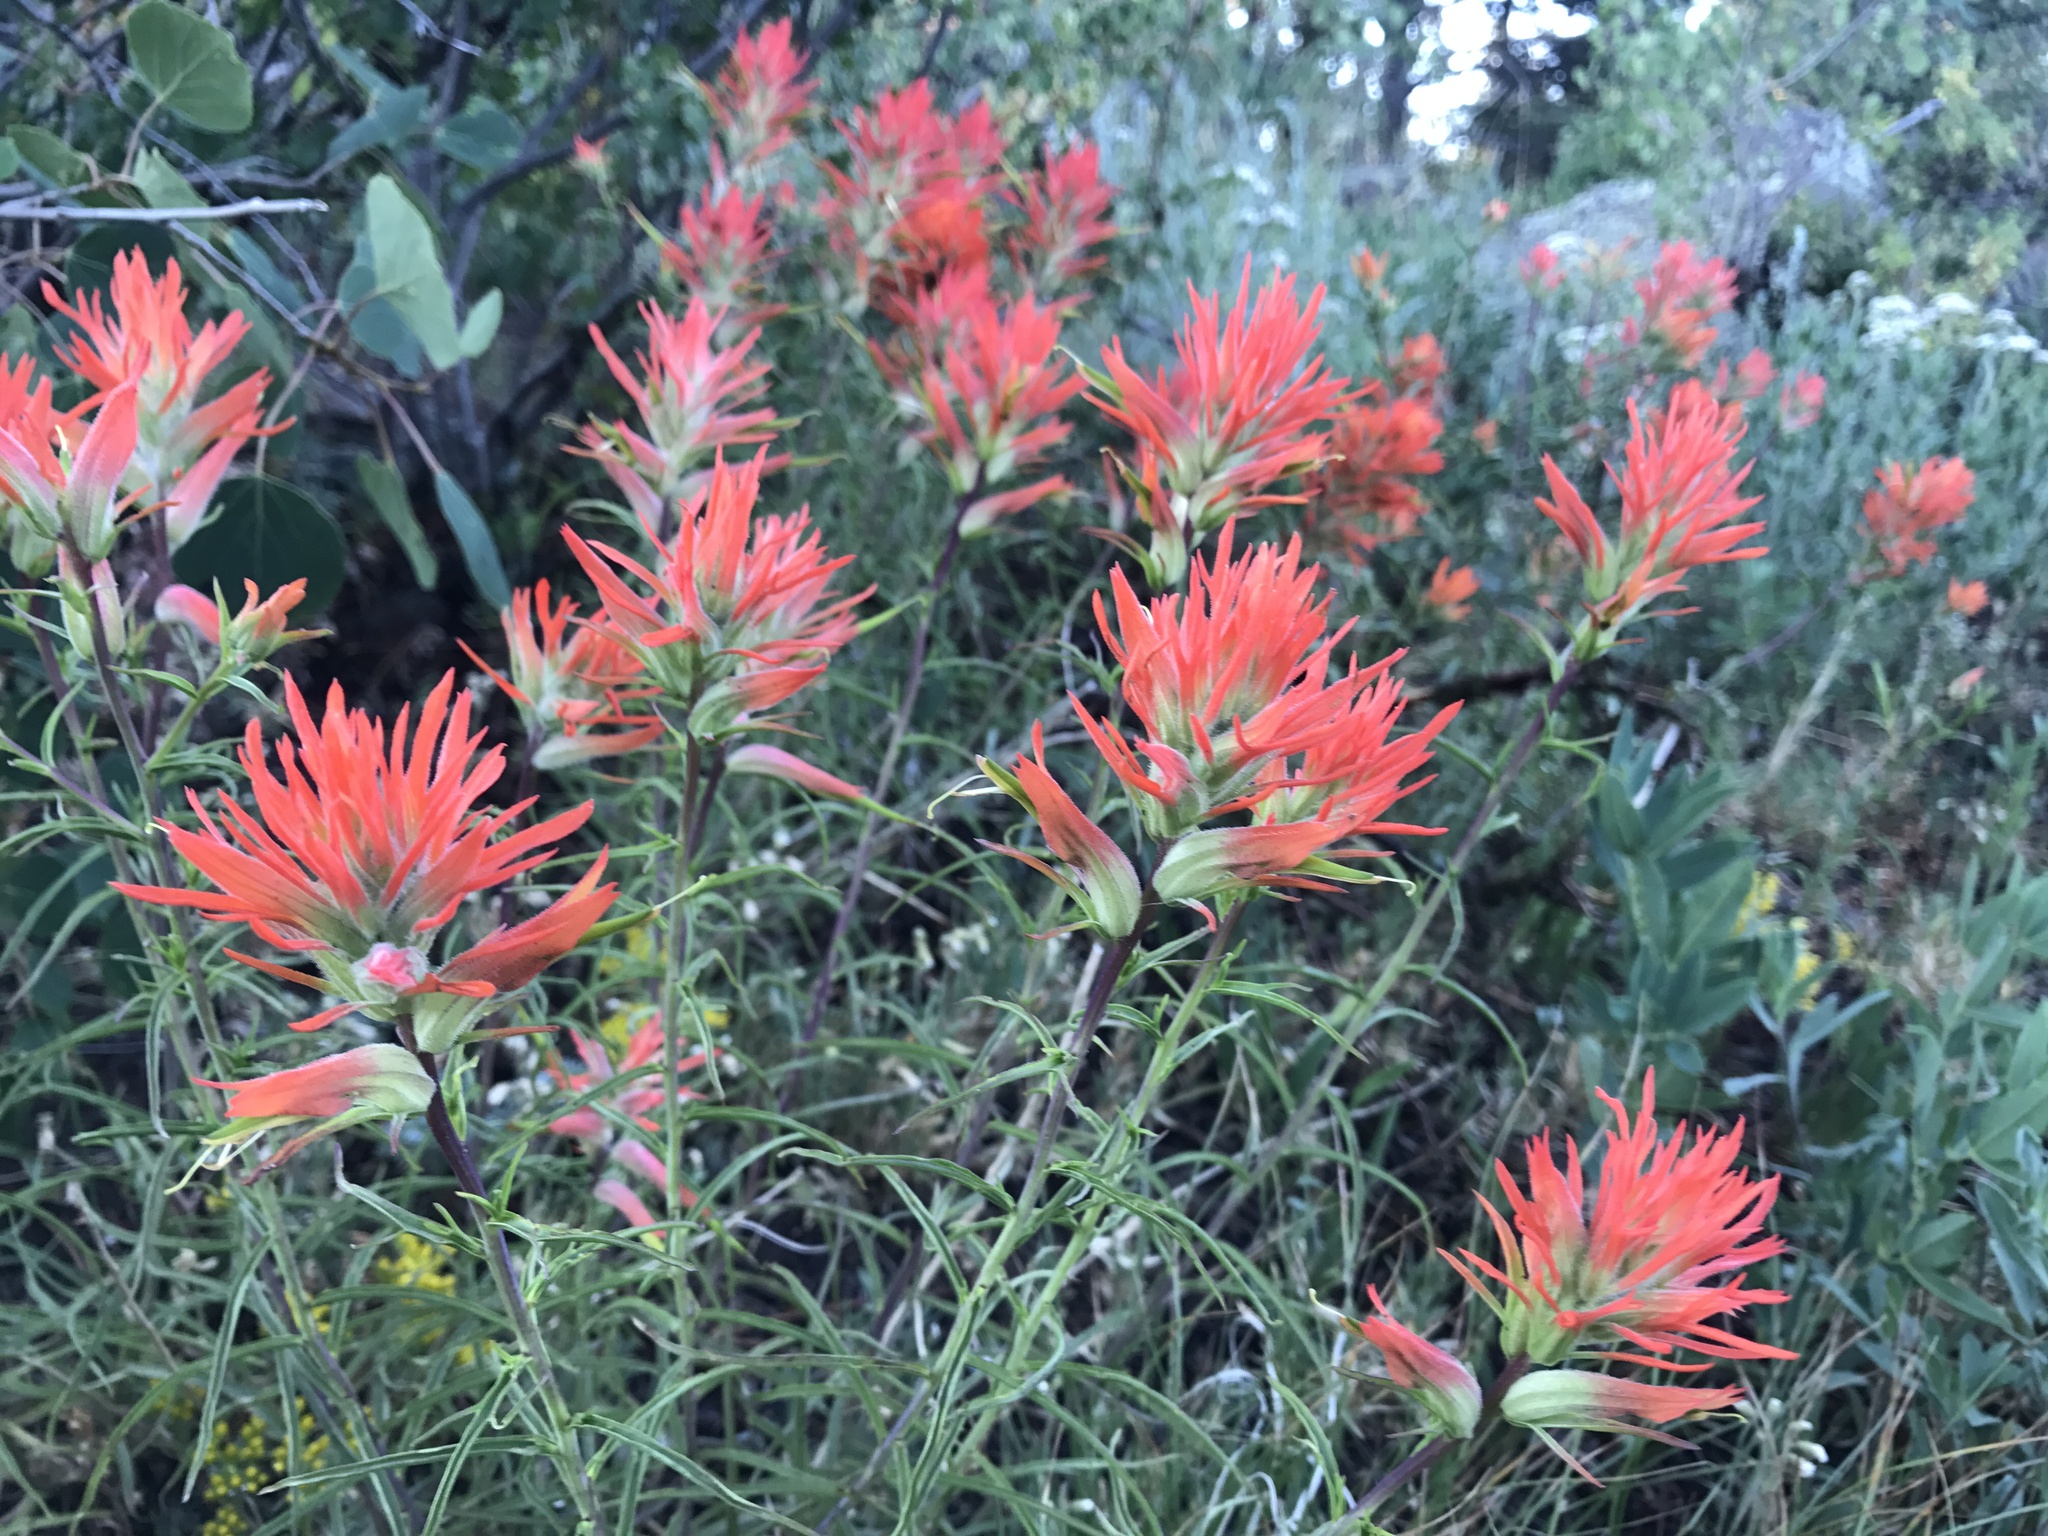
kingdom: Plantae
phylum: Tracheophyta
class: Magnoliopsida
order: Lamiales
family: Orobanchaceae
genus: Castilleja
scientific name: Castilleja linariifolia
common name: Wyoming paintbrush
